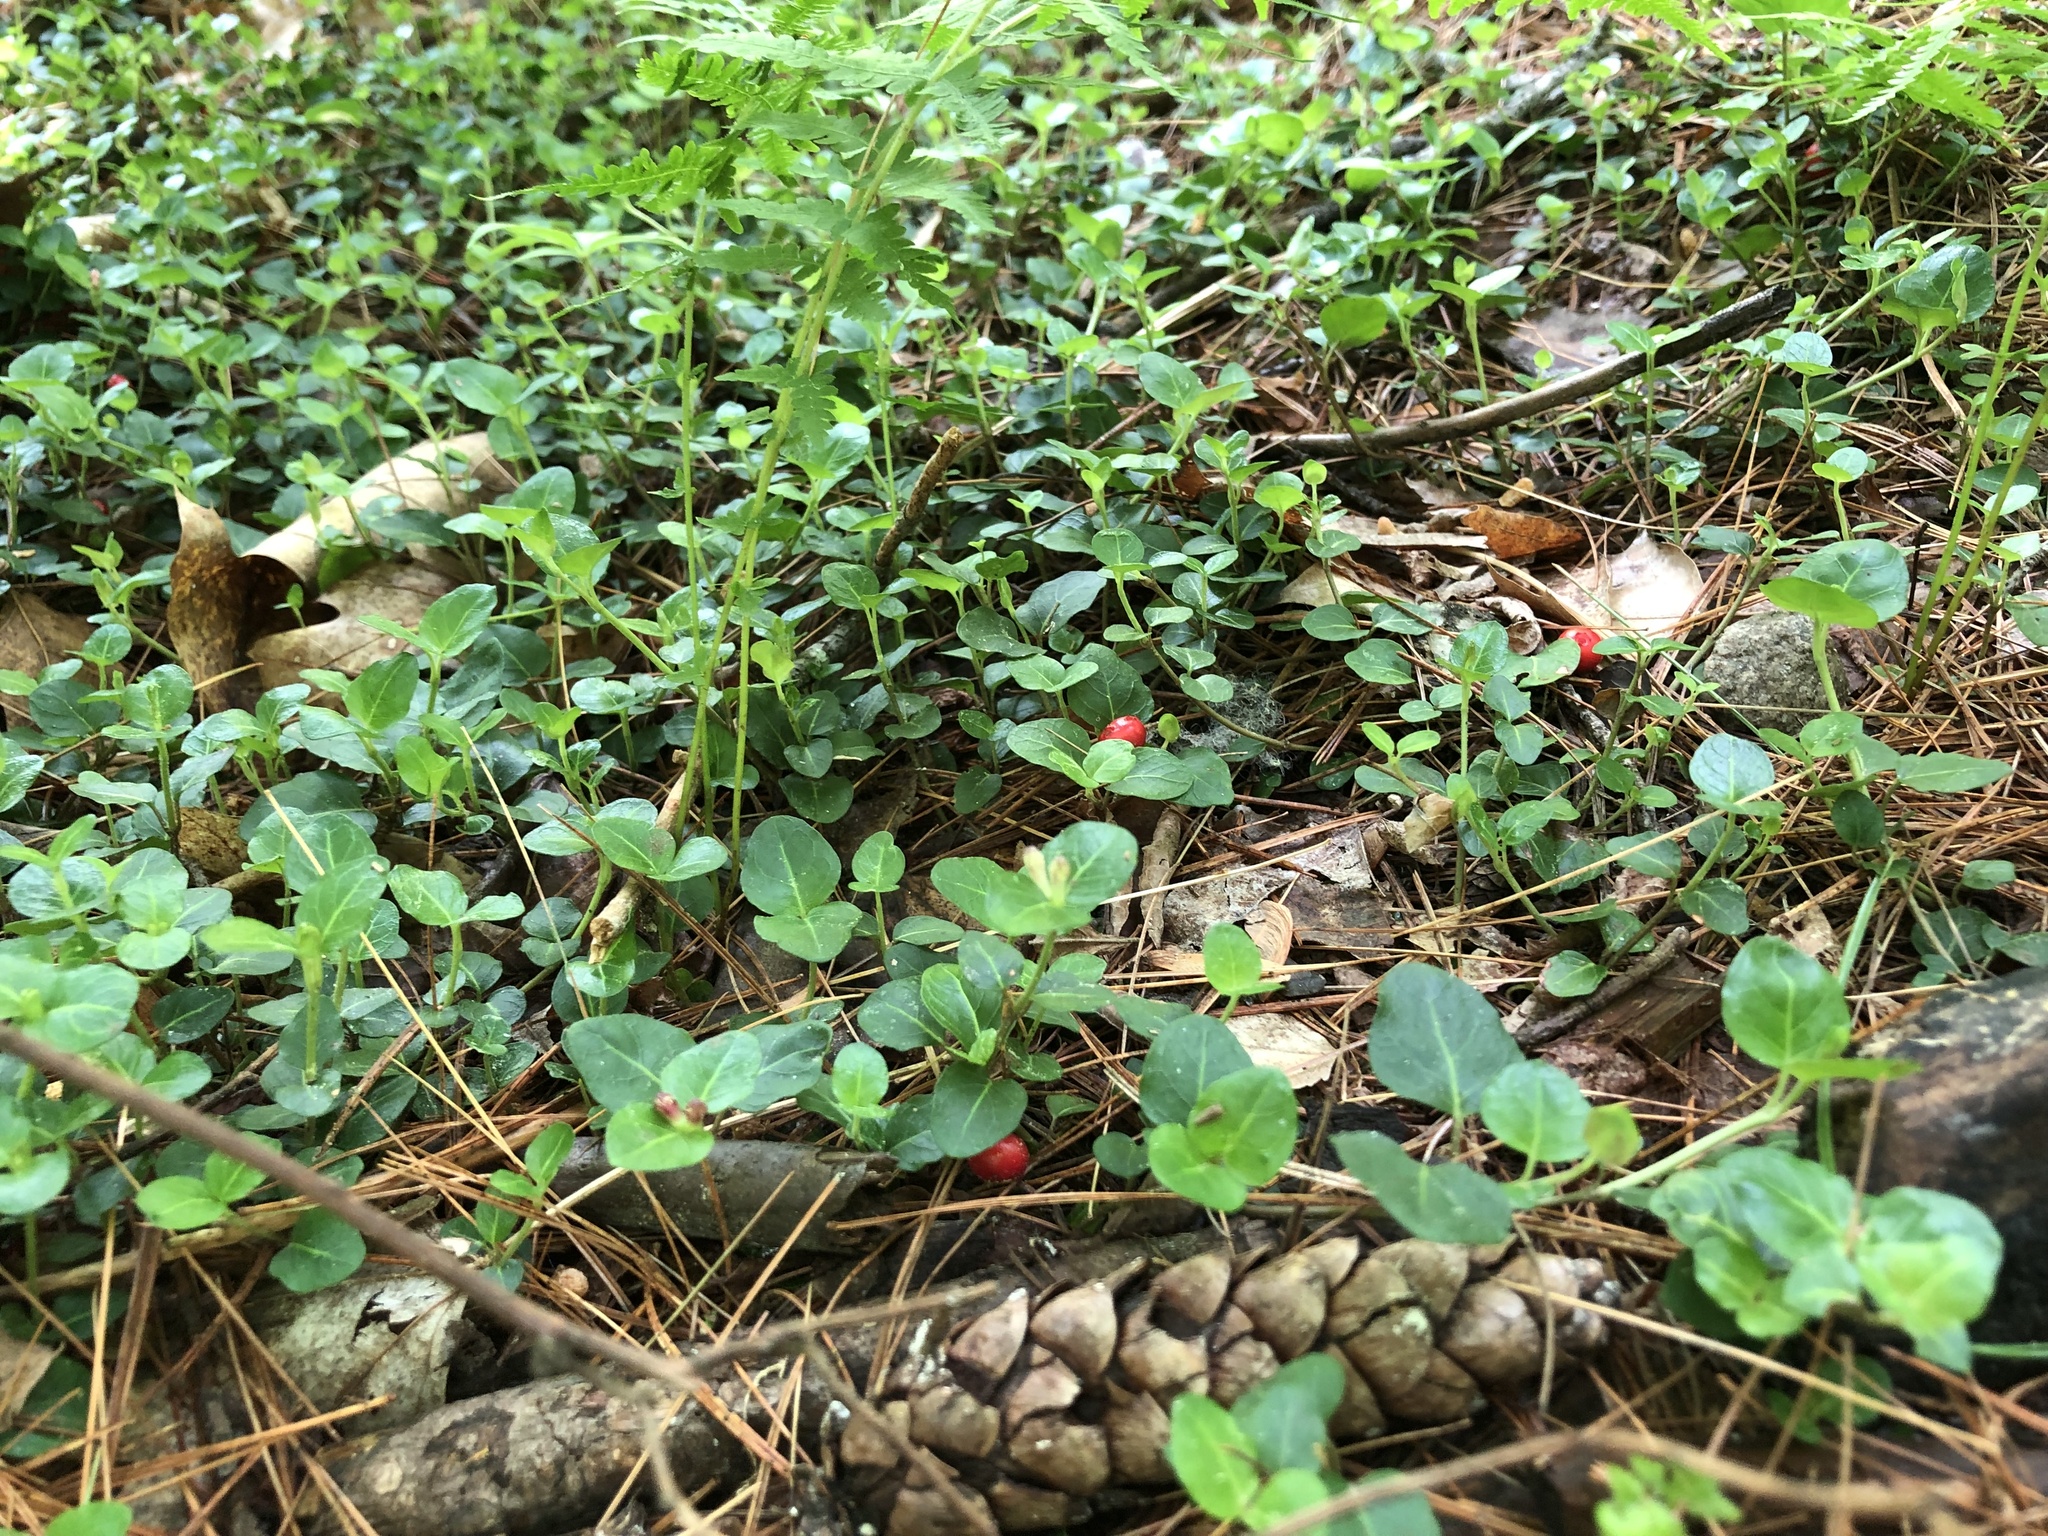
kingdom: Plantae
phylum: Tracheophyta
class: Magnoliopsida
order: Gentianales
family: Rubiaceae
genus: Mitchella
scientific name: Mitchella repens
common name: Partridge-berry
